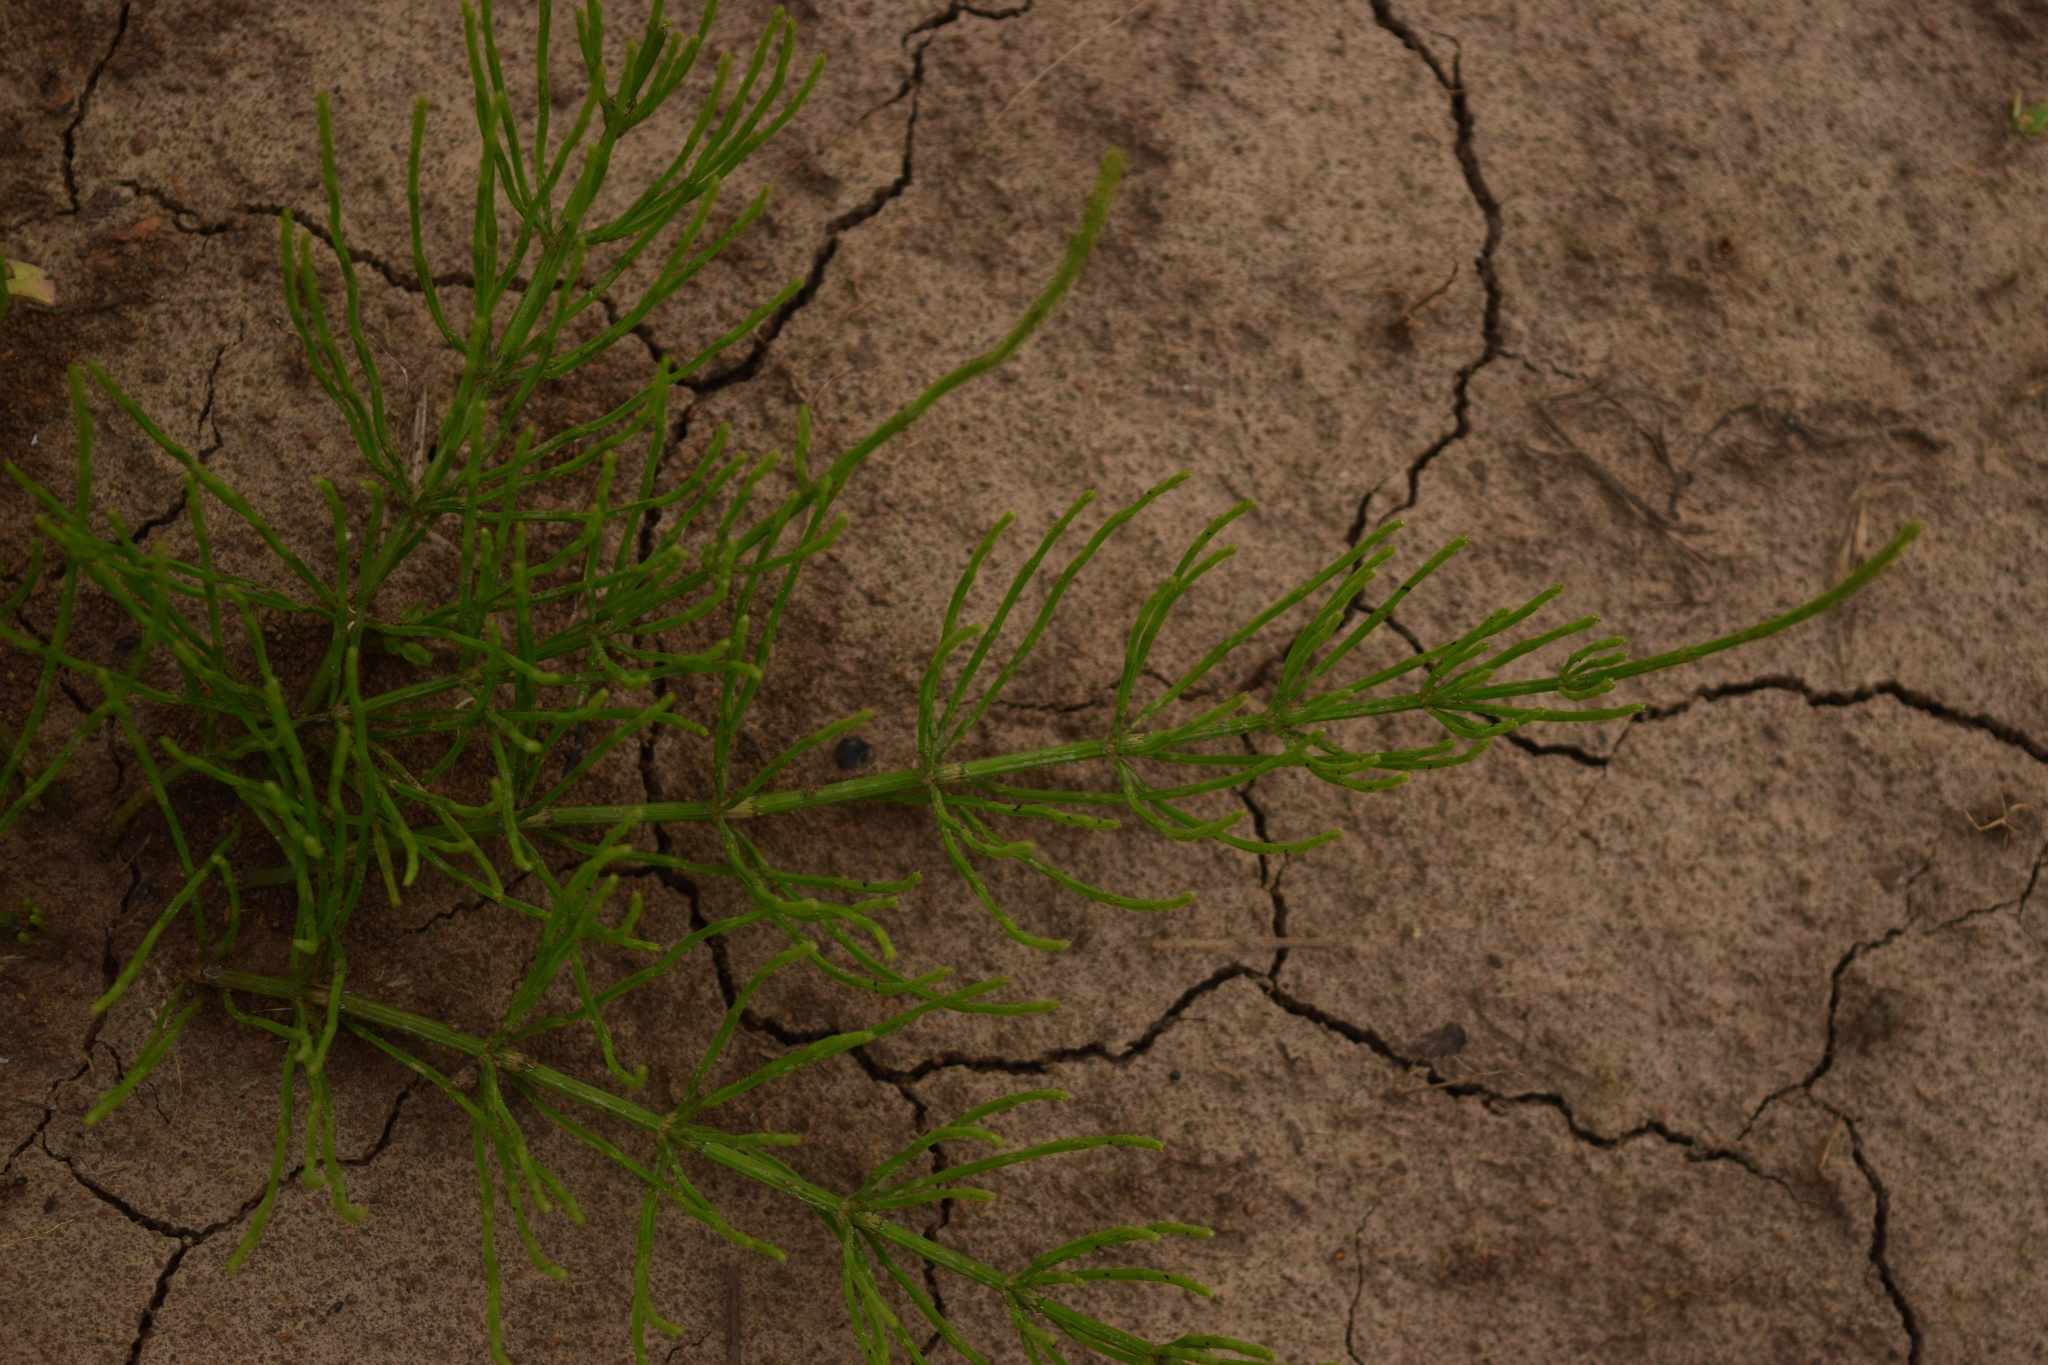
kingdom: Plantae
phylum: Tracheophyta
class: Polypodiopsida
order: Equisetales
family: Equisetaceae
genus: Equisetum
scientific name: Equisetum arvense
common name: Field horsetail
